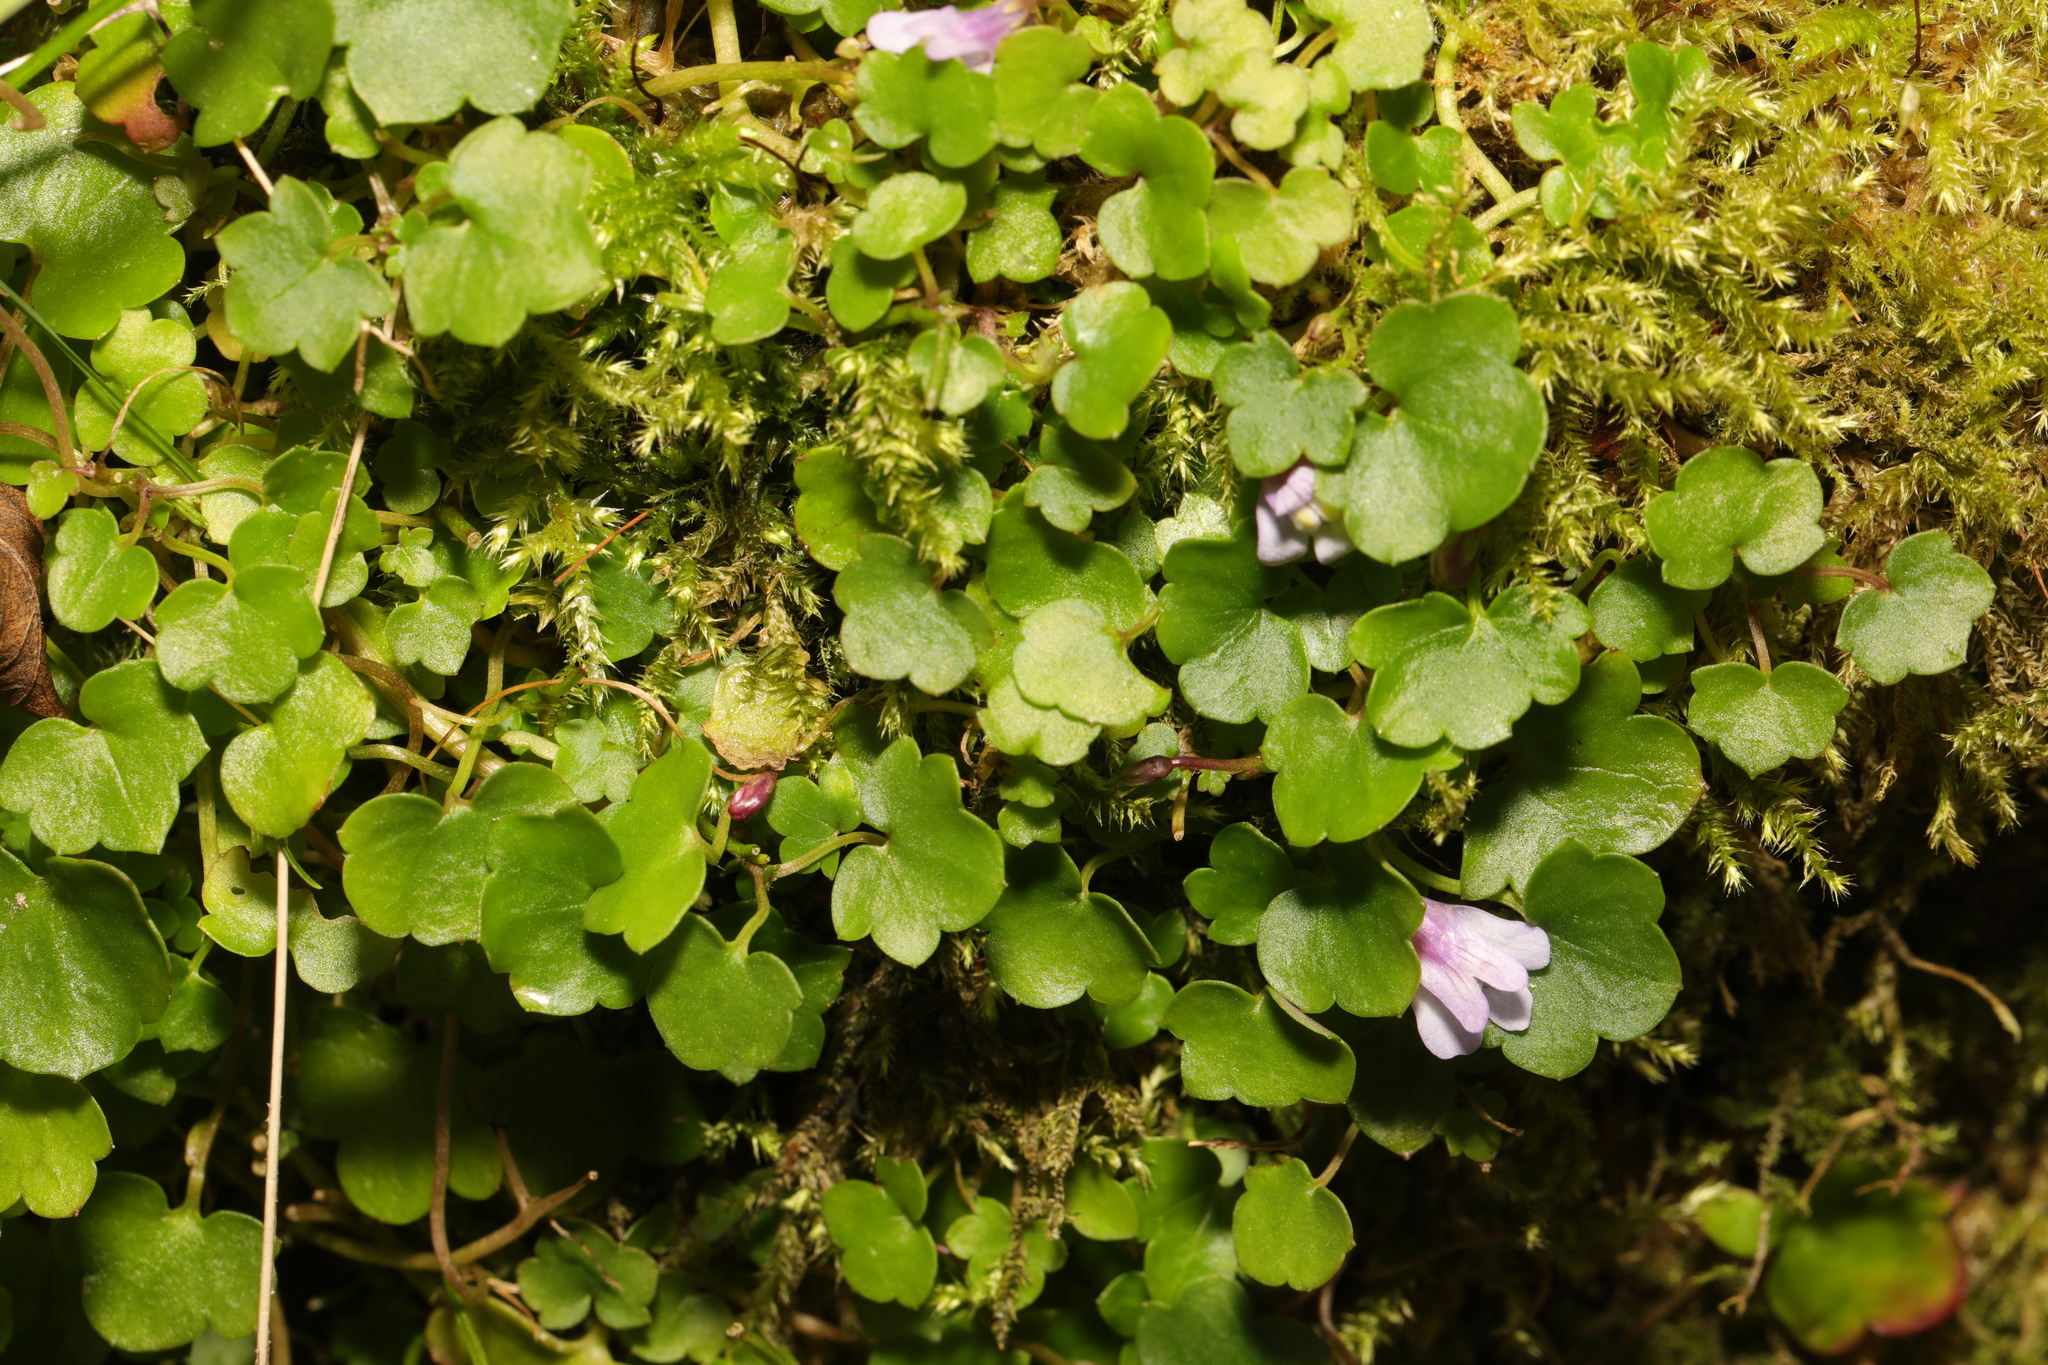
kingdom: Plantae
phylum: Tracheophyta
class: Magnoliopsida
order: Lamiales
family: Plantaginaceae
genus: Cymbalaria
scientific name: Cymbalaria muralis
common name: Ivy-leaved toadflax
